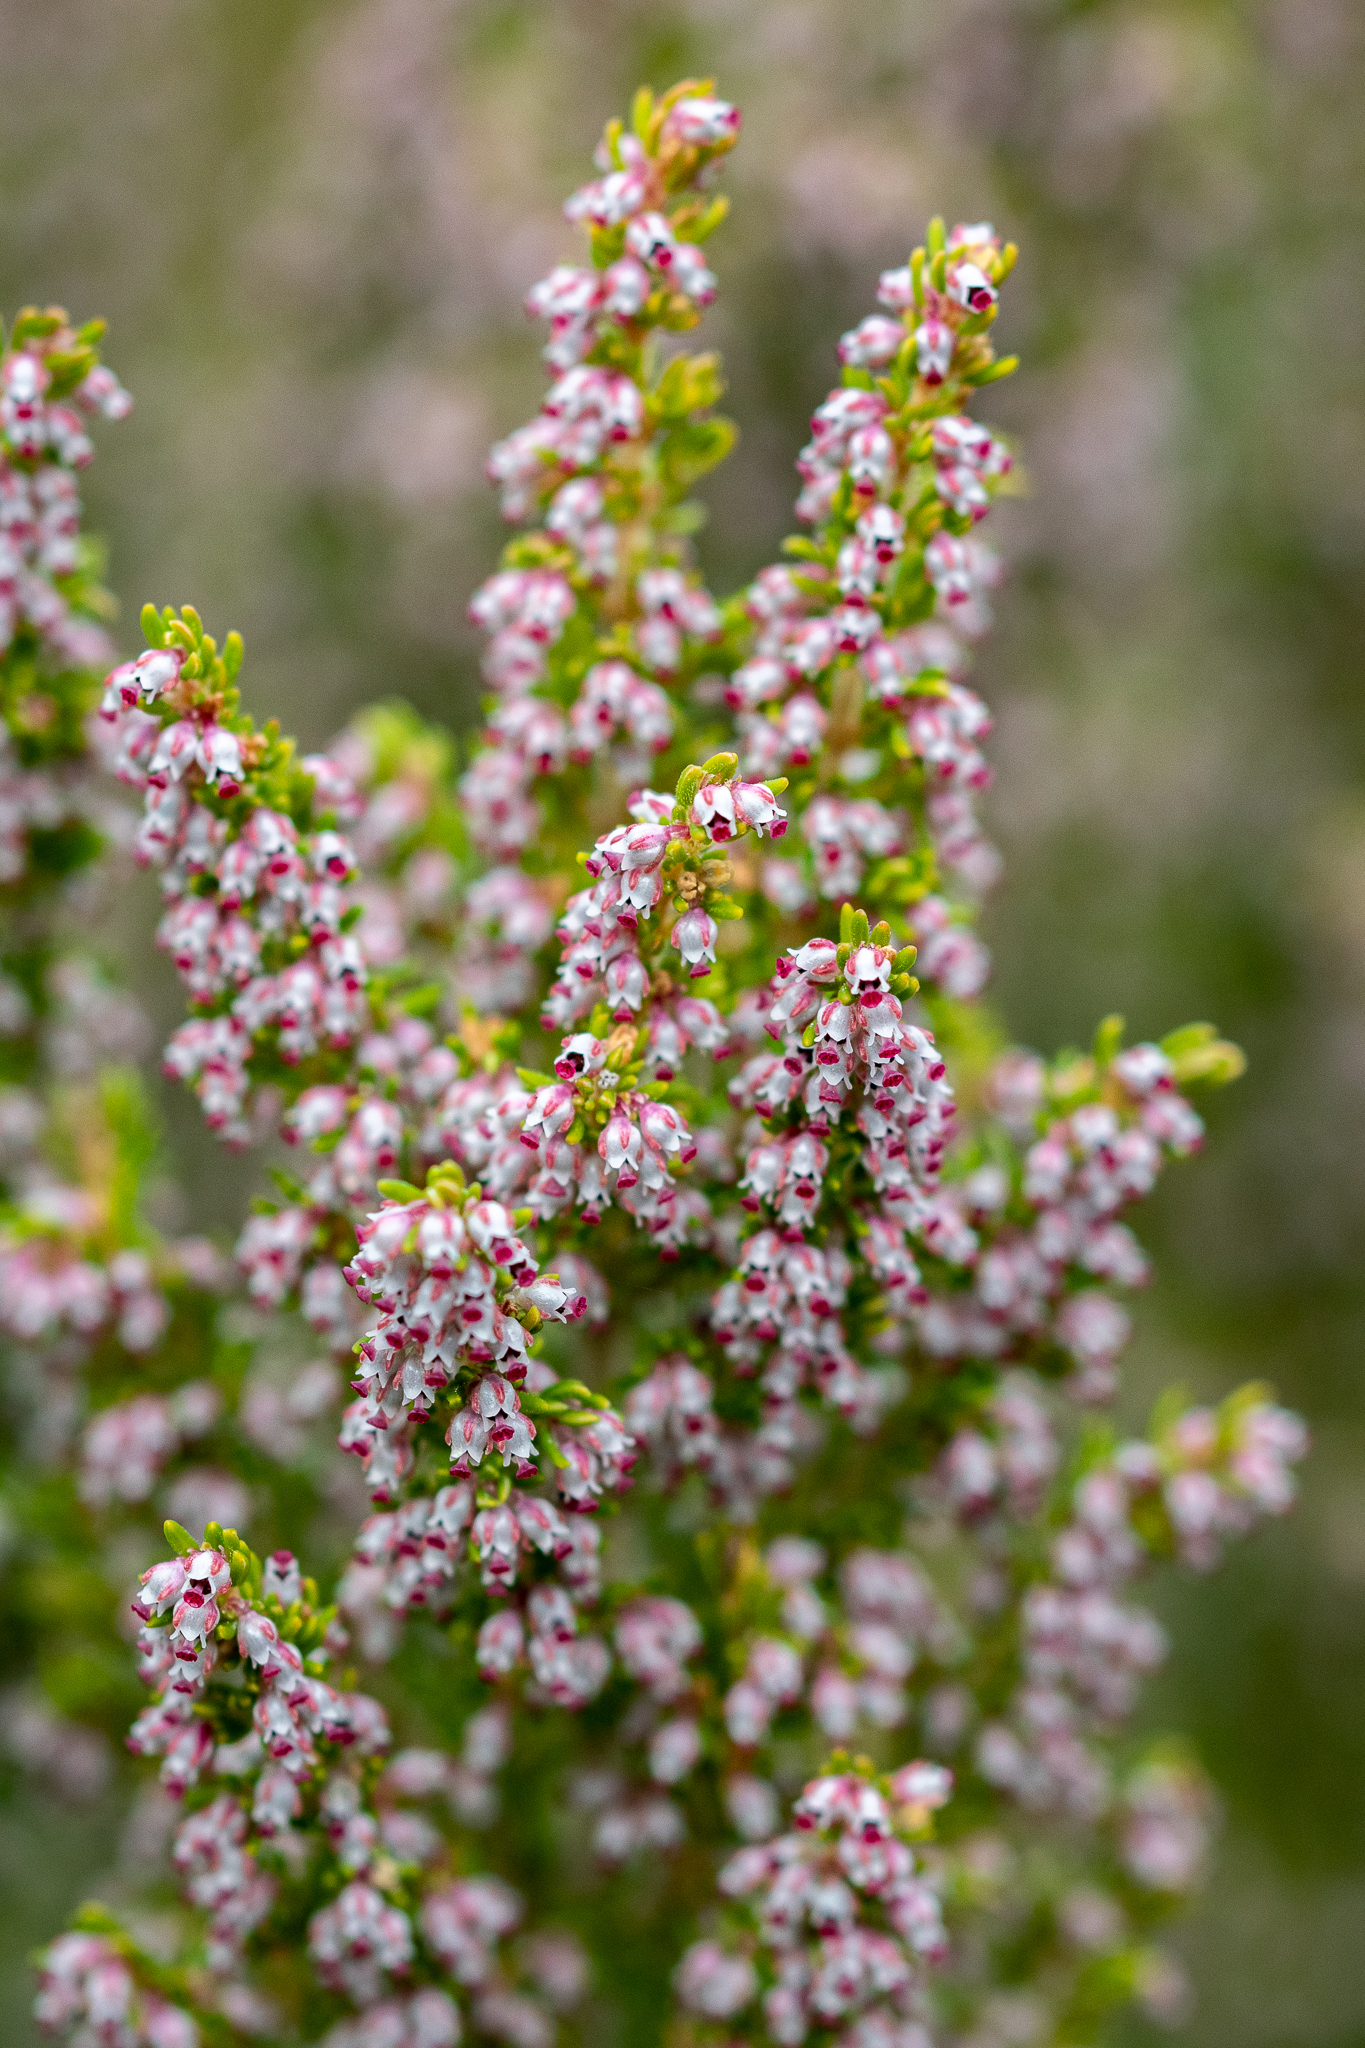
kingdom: Plantae
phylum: Tracheophyta
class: Magnoliopsida
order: Ericales
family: Ericaceae
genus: Erica
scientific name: Erica hispidula
